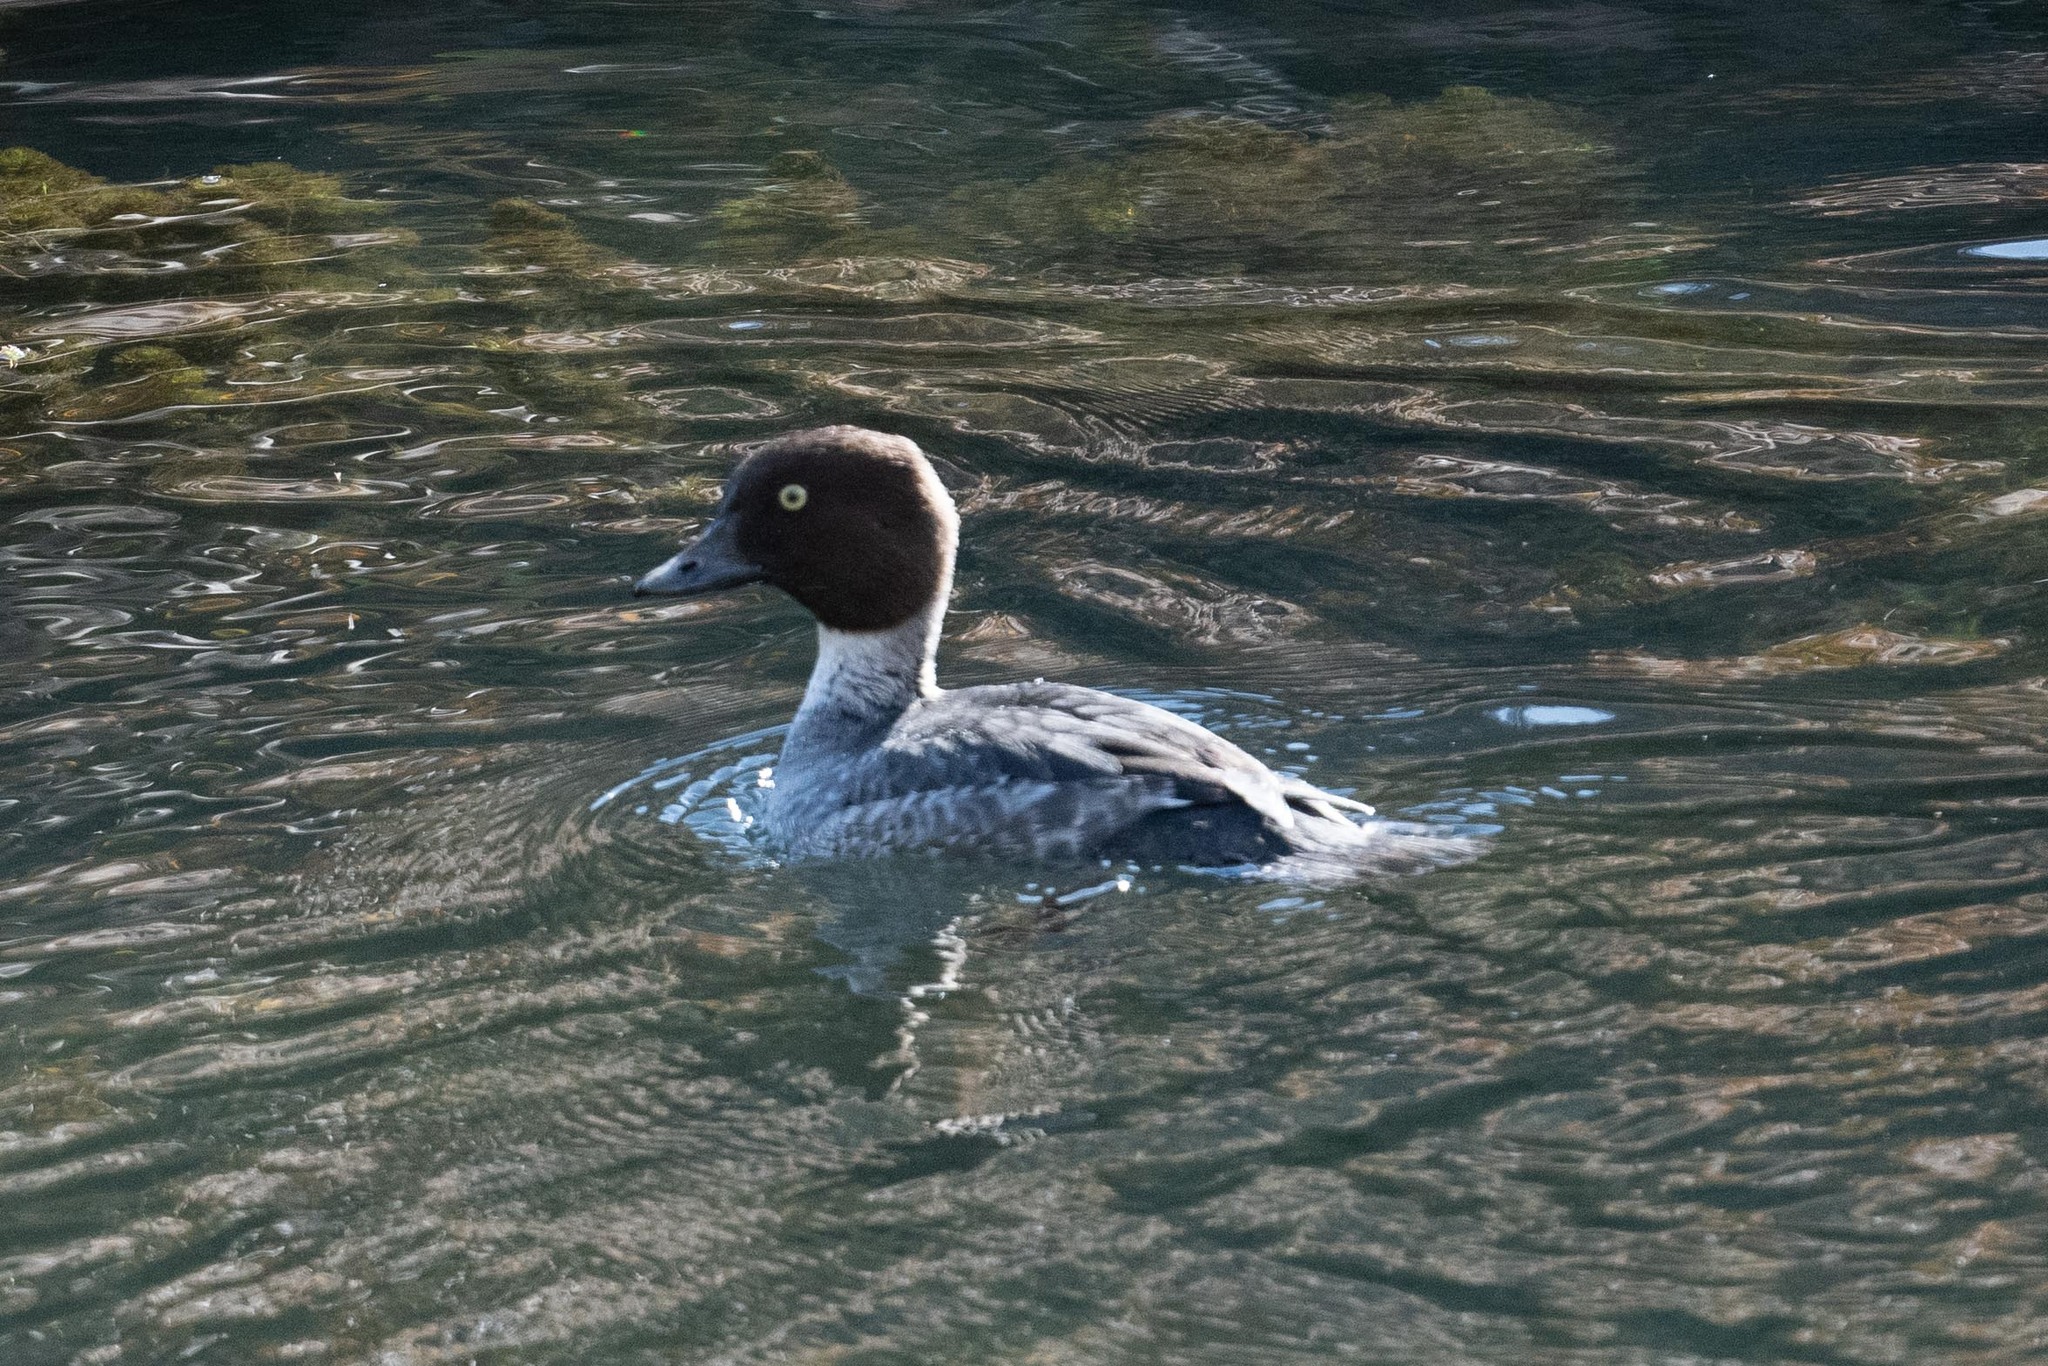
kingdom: Animalia
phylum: Chordata
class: Aves
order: Anseriformes
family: Anatidae
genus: Bucephala
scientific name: Bucephala islandica
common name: Barrow's goldeneye
